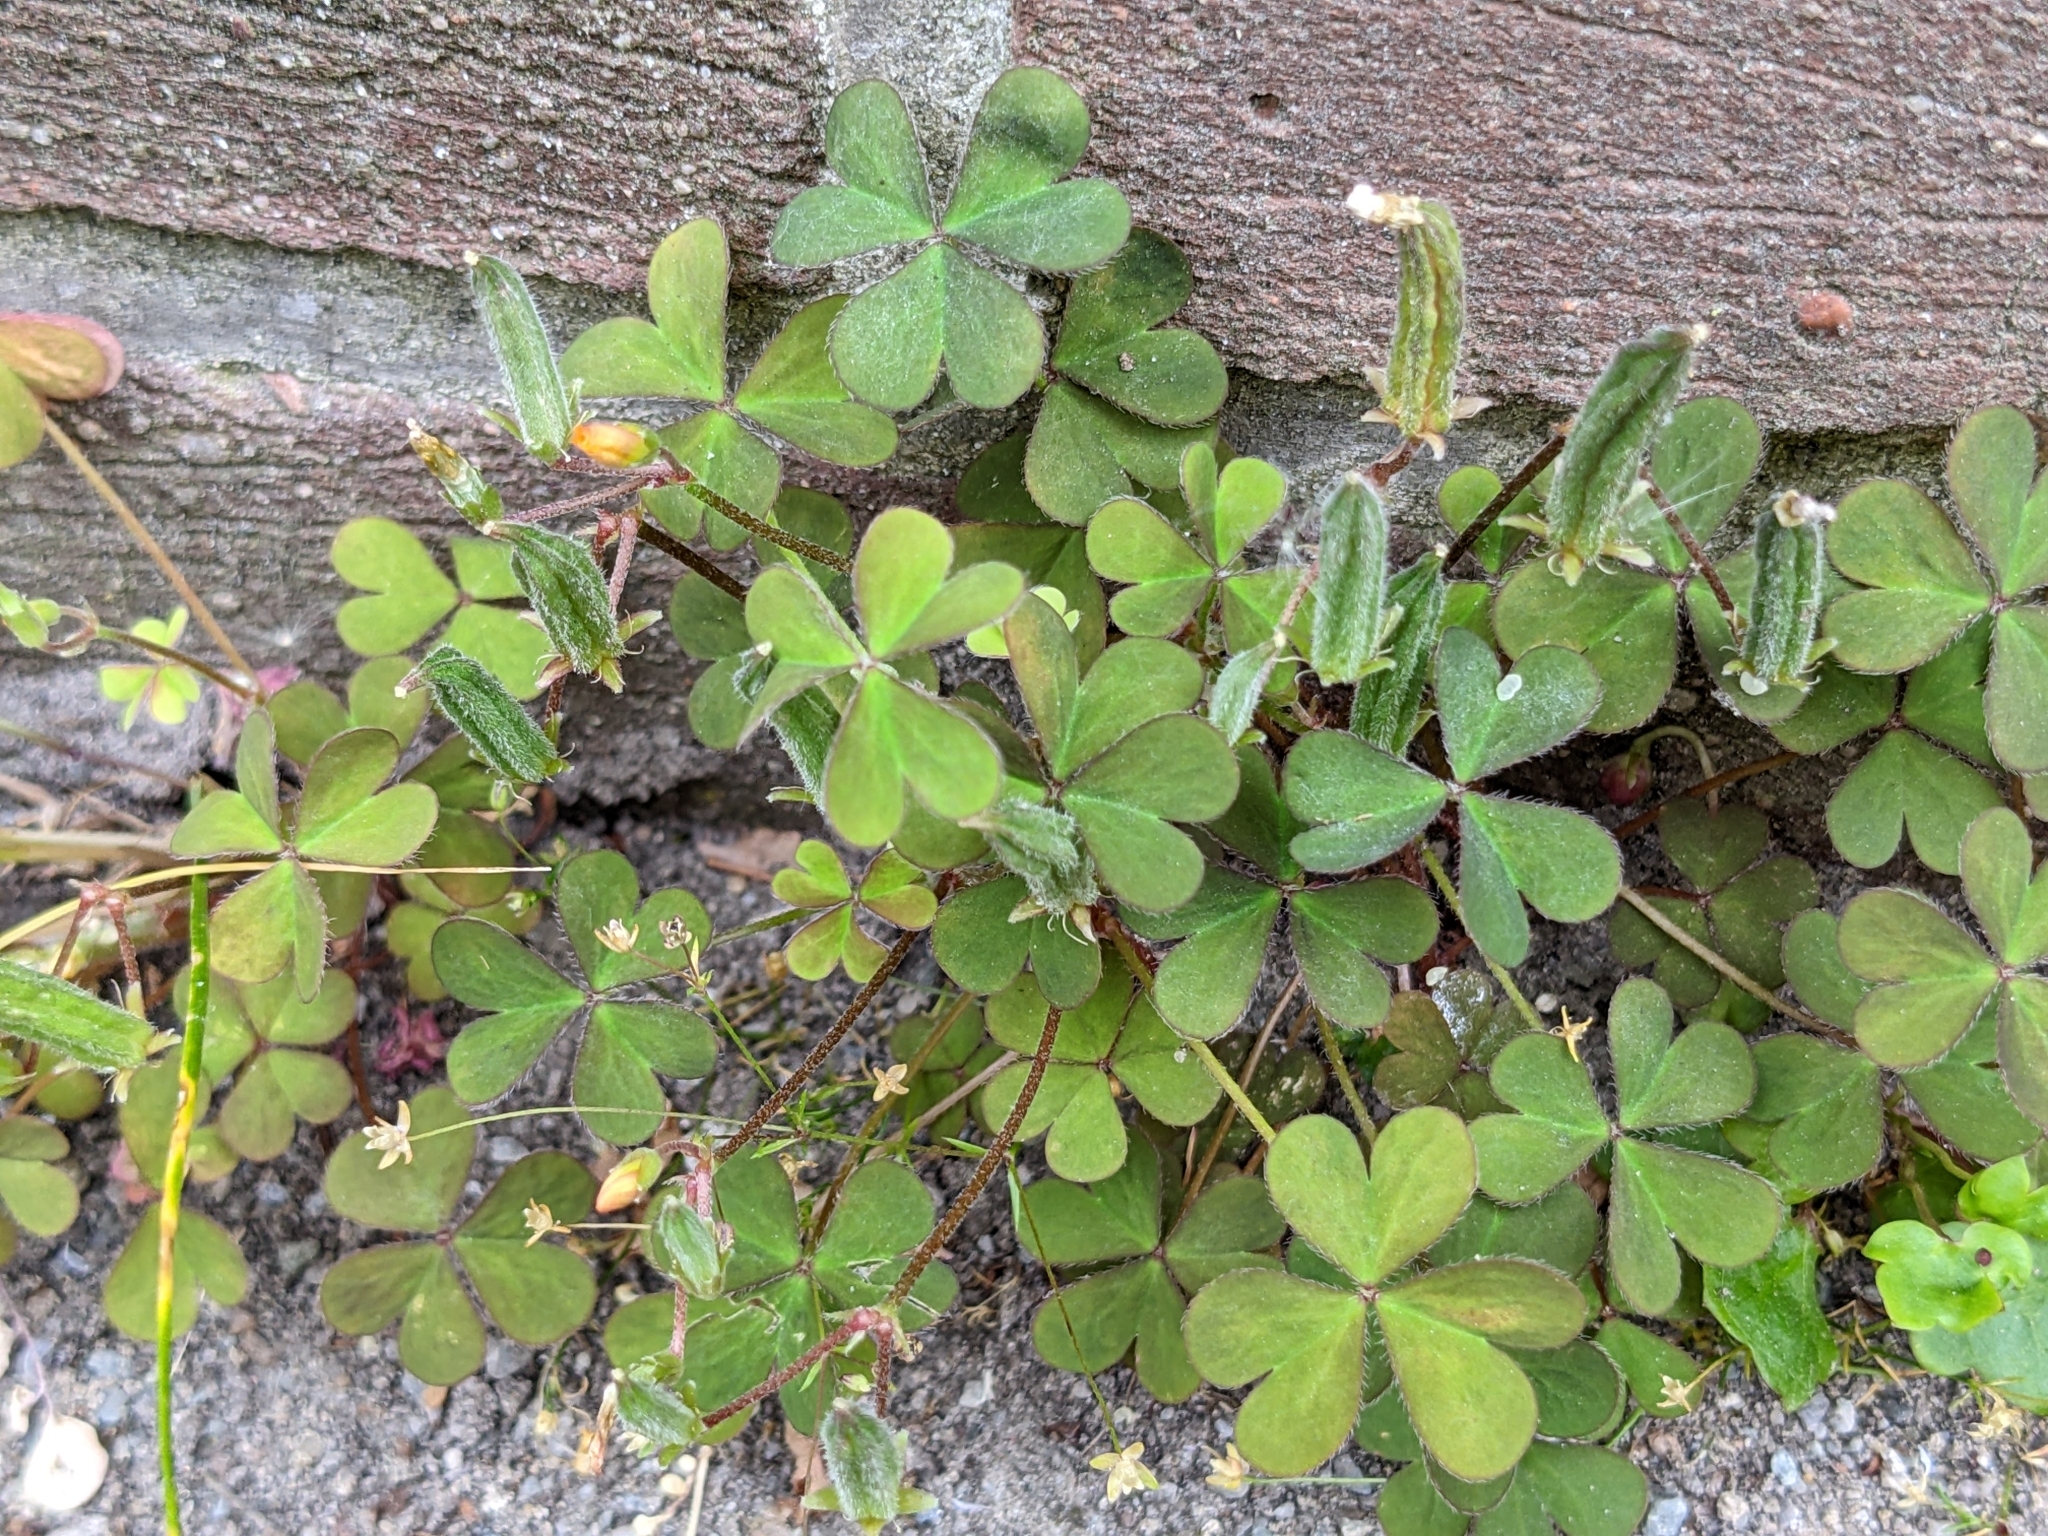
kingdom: Plantae
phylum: Tracheophyta
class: Magnoliopsida
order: Oxalidales
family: Oxalidaceae
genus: Oxalis
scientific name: Oxalis corniculata
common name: Procumbent yellow-sorrel
